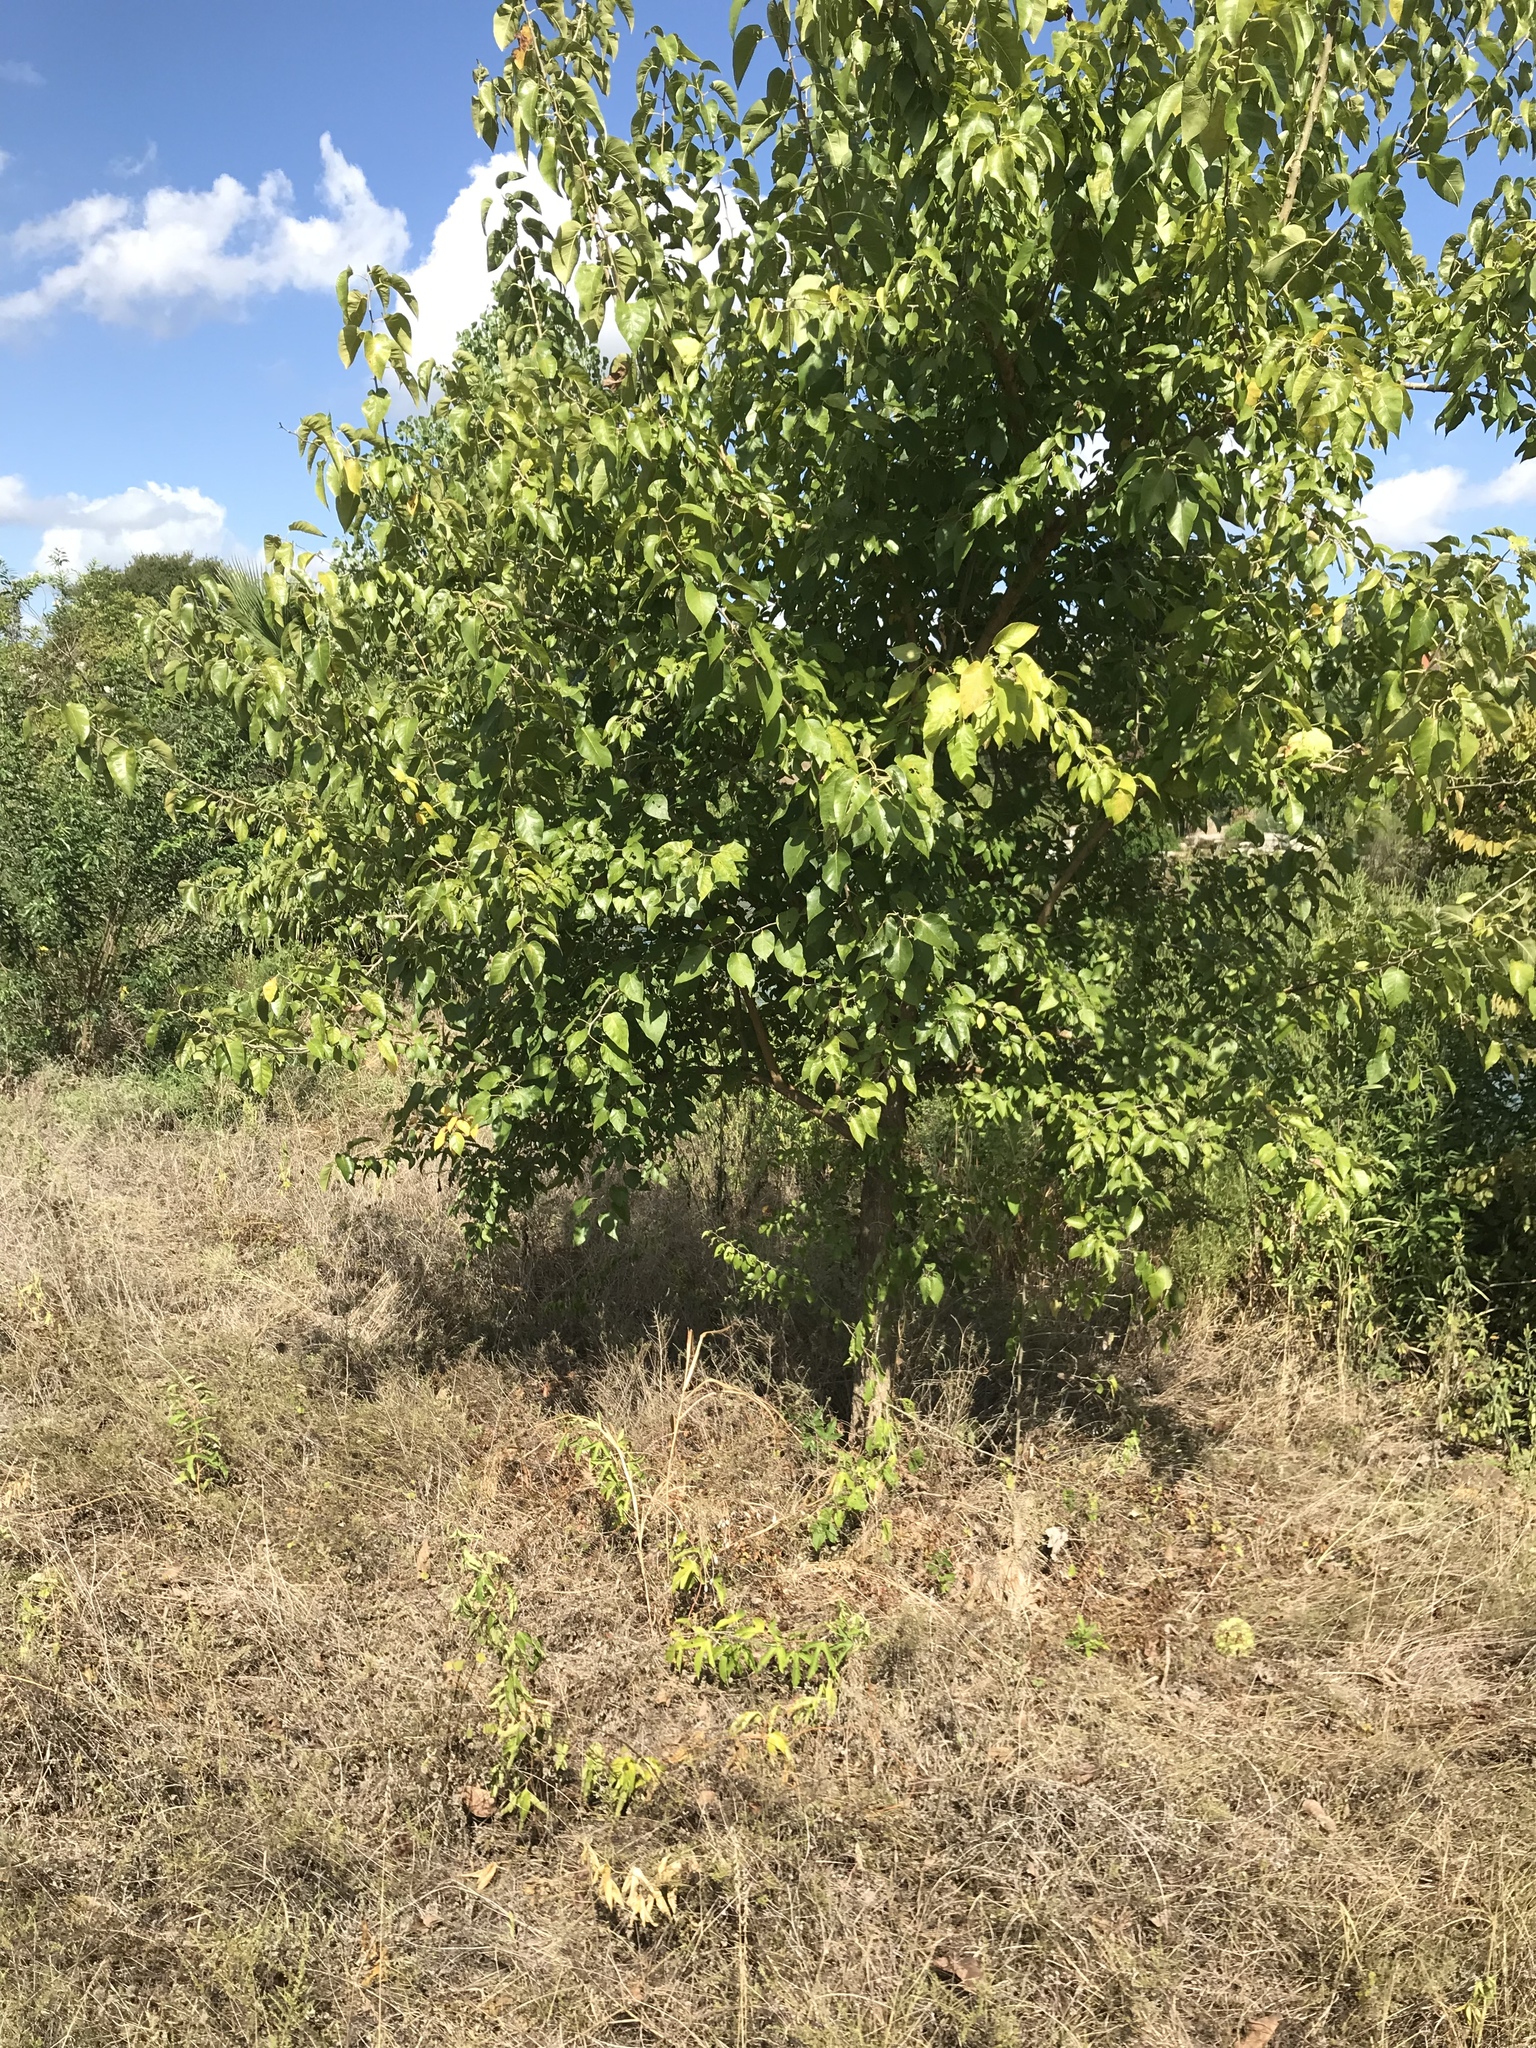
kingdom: Plantae
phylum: Tracheophyta
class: Magnoliopsida
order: Rosales
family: Moraceae
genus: Maclura
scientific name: Maclura pomifera
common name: Osage-orange
